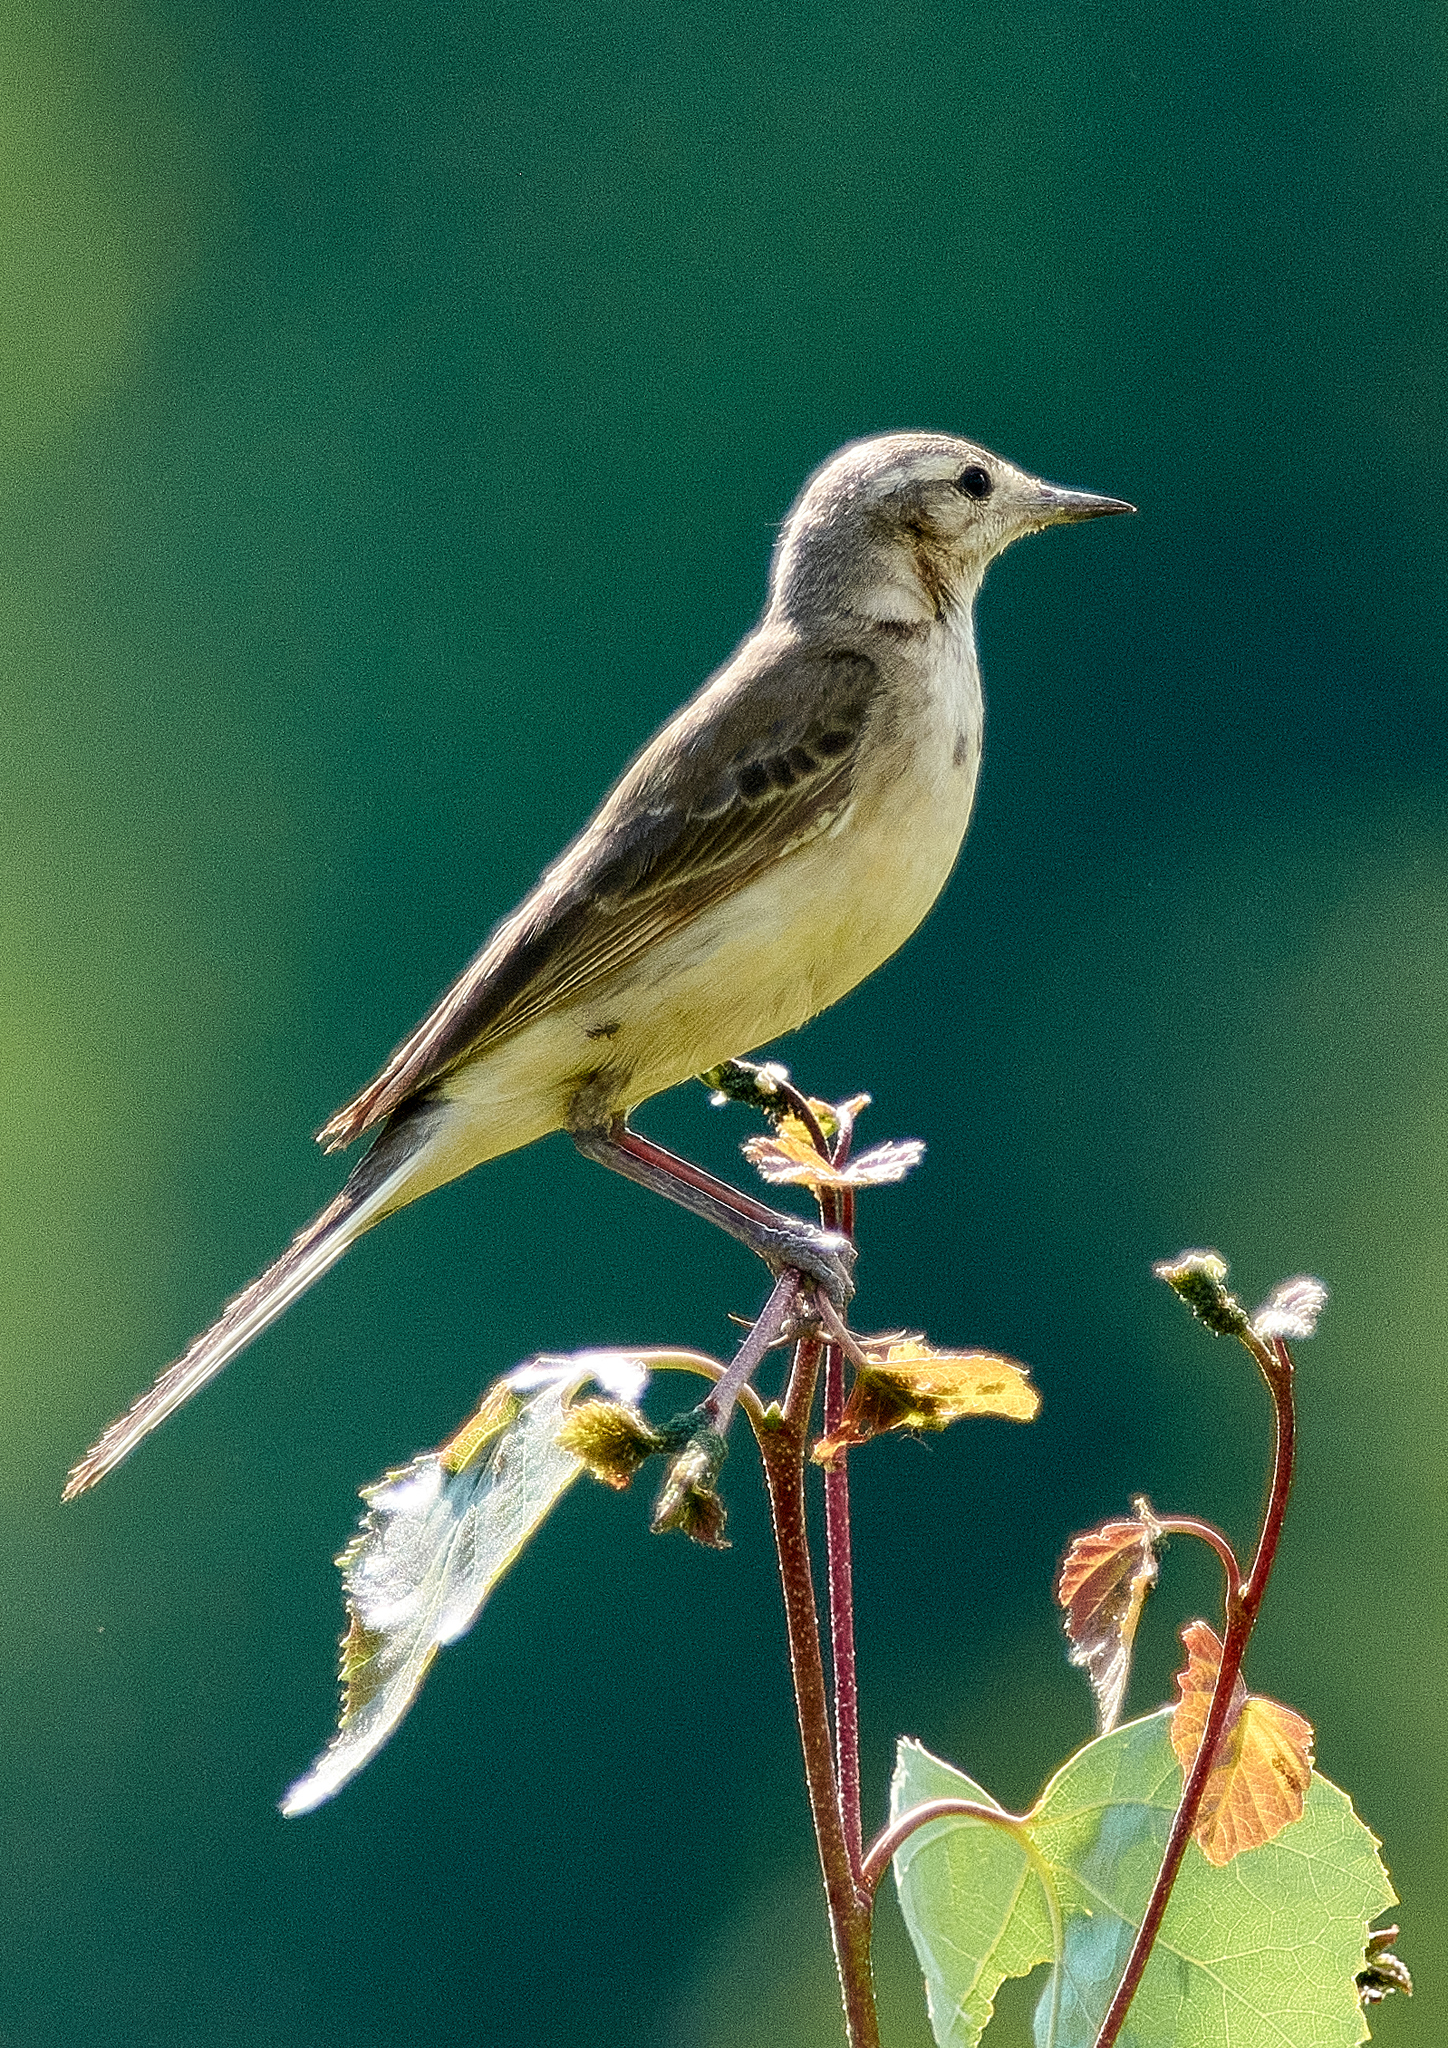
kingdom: Animalia
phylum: Chordata
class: Aves
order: Passeriformes
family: Motacillidae
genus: Motacilla
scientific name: Motacilla flava
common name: Western yellow wagtail
